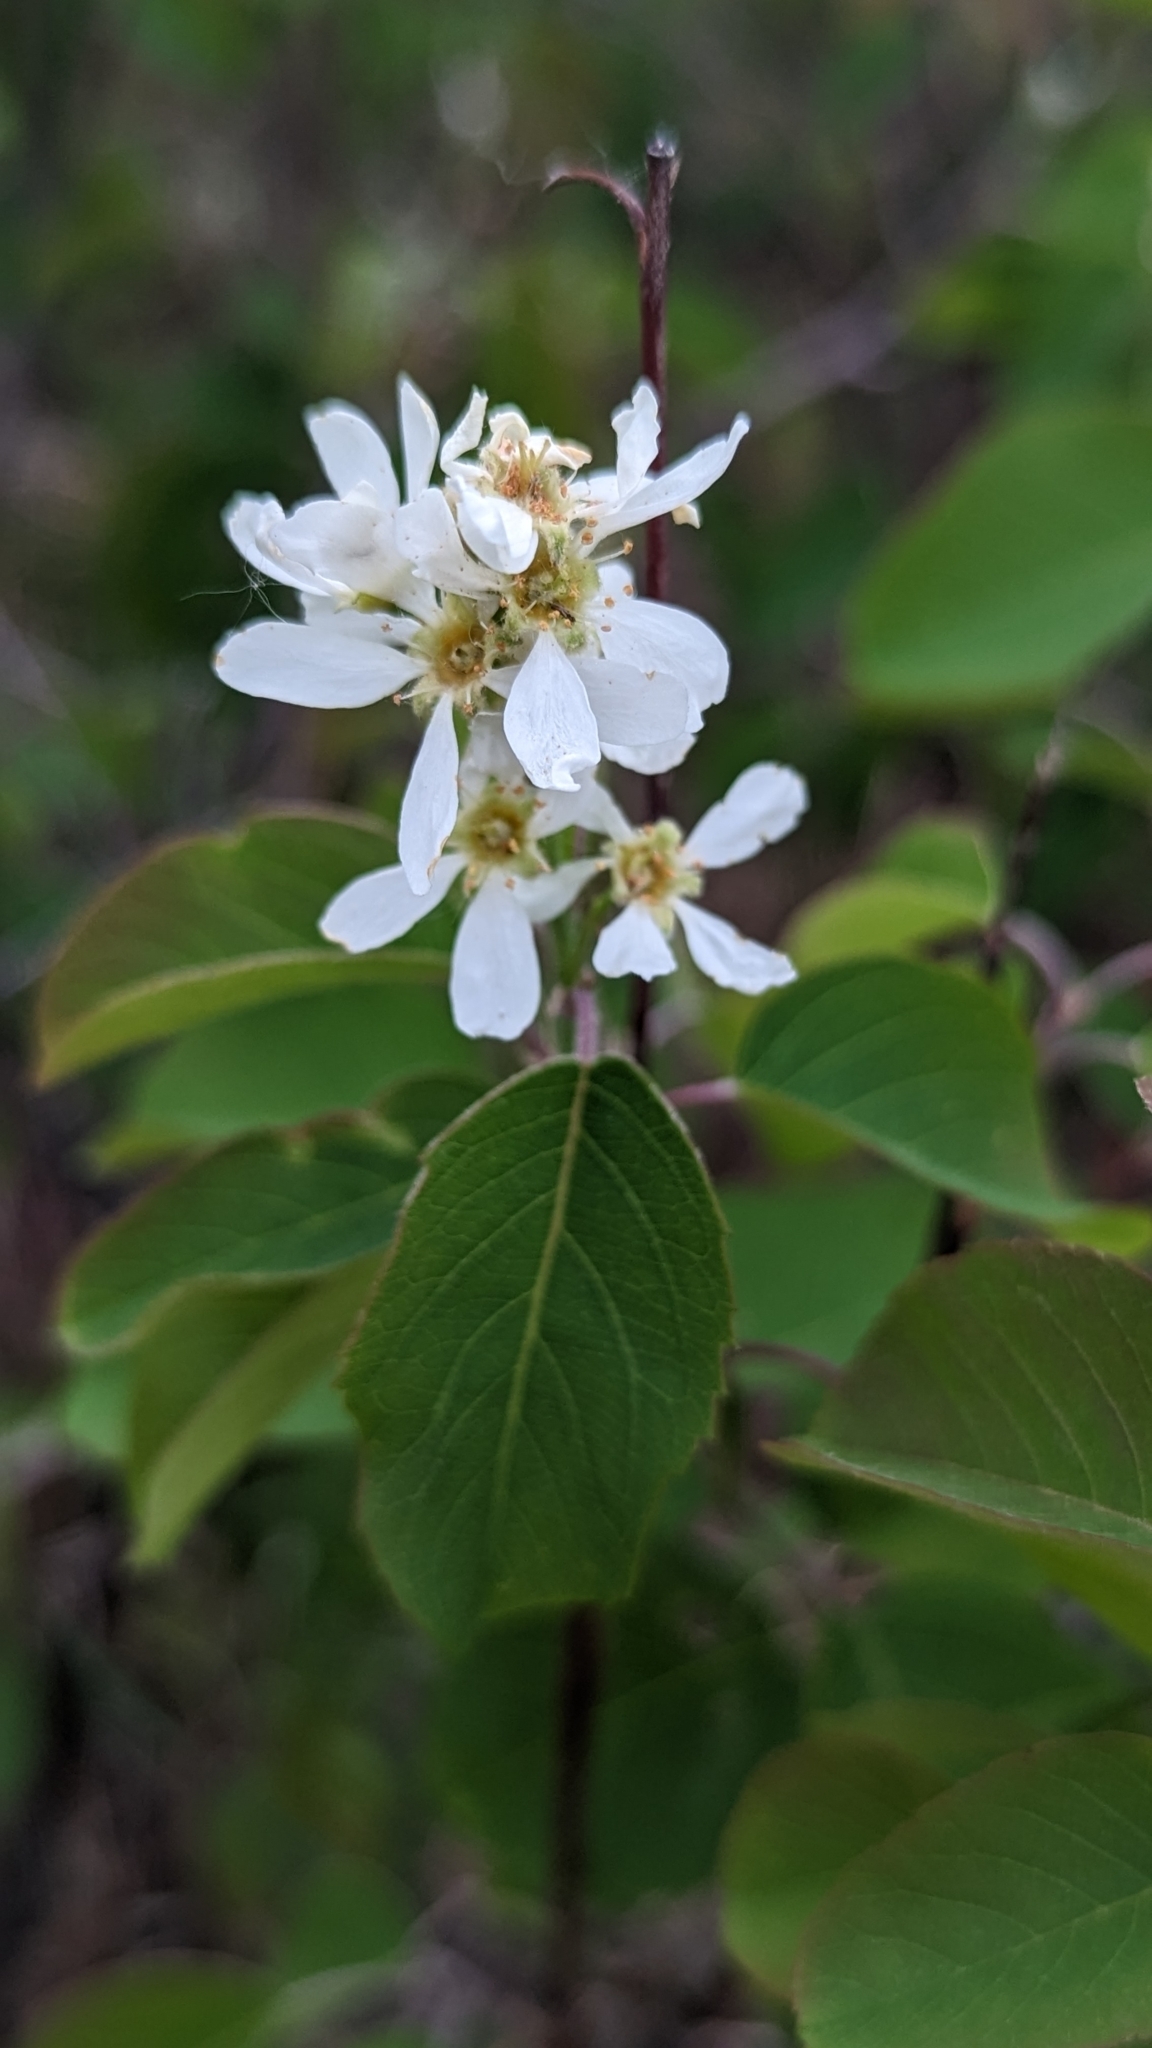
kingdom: Plantae
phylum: Tracheophyta
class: Magnoliopsida
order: Rosales
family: Rosaceae
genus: Amelanchier
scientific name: Amelanchier alnifolia
